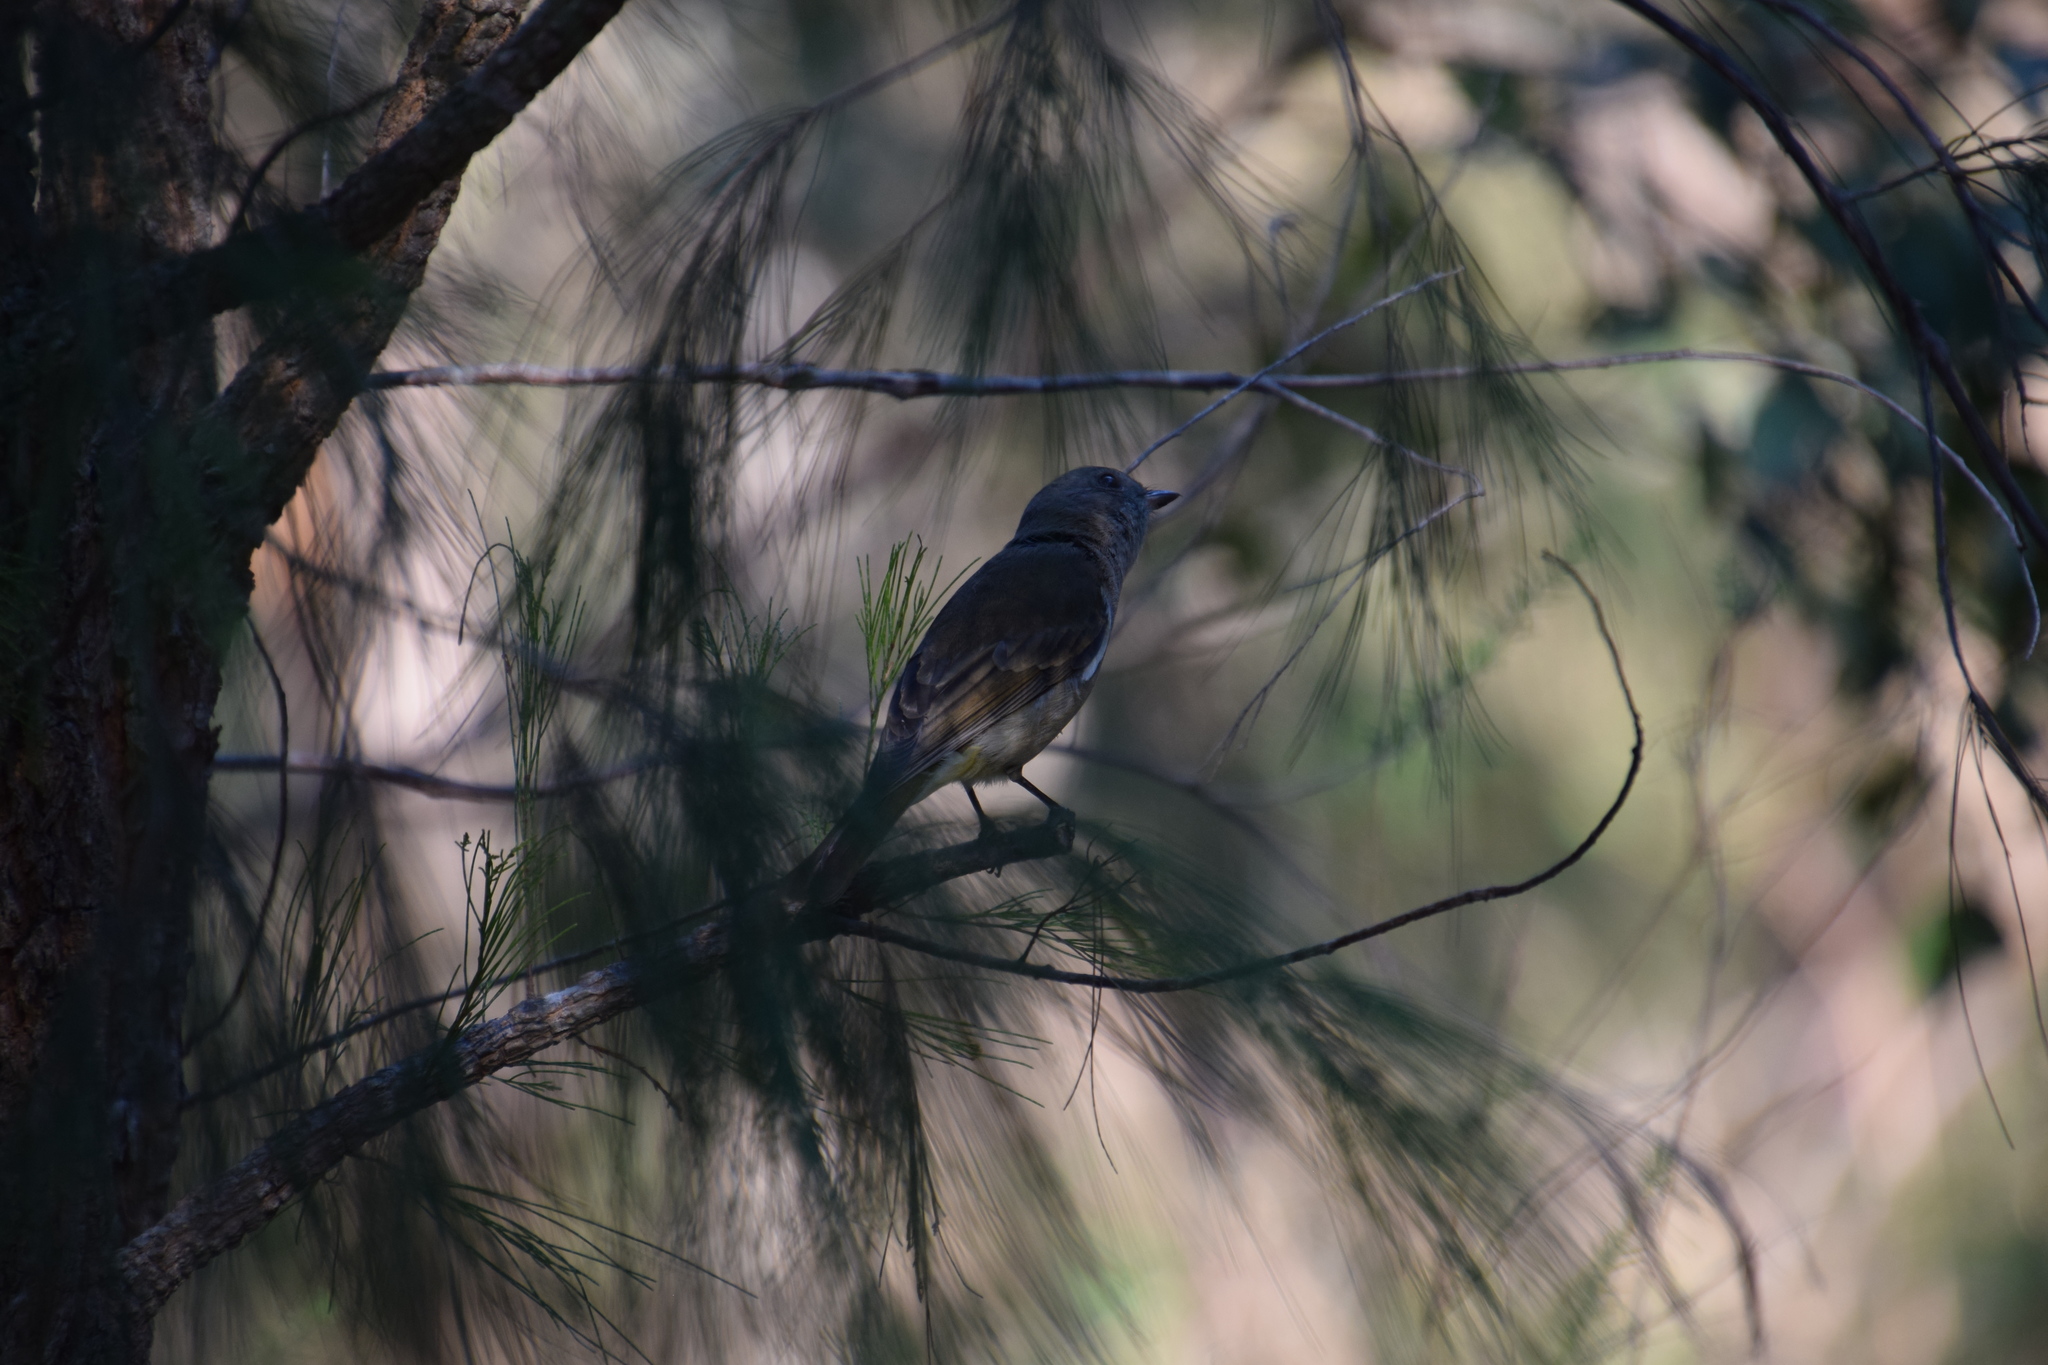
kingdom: Animalia
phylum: Chordata
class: Aves
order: Passeriformes
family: Pachycephalidae
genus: Pachycephala
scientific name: Pachycephala pectoralis
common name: Australian golden whistler
